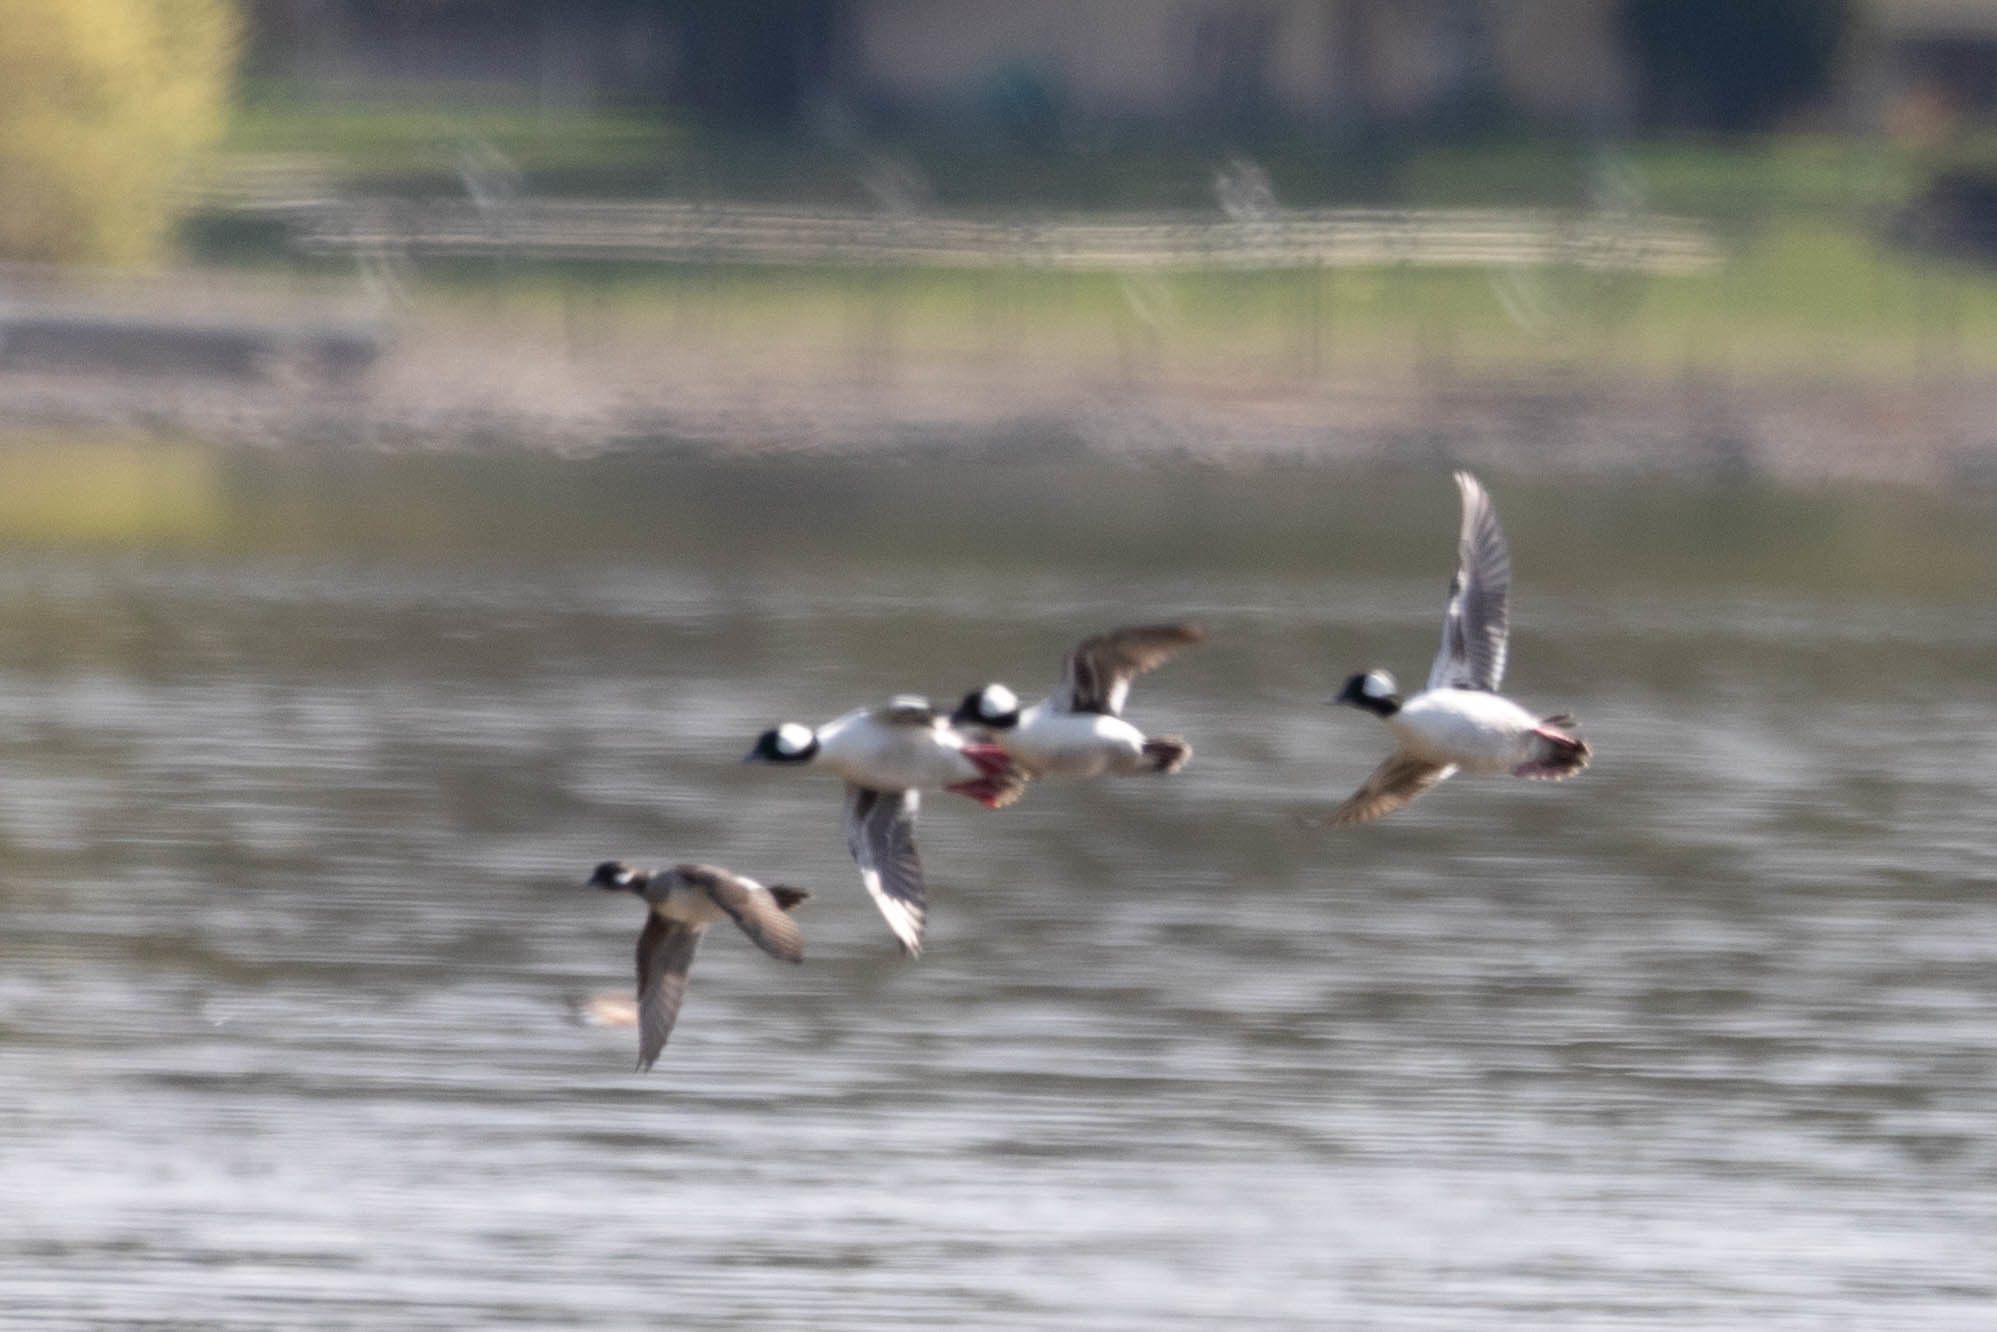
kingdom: Animalia
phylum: Chordata
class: Aves
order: Anseriformes
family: Anatidae
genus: Bucephala
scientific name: Bucephala albeola
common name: Bufflehead
